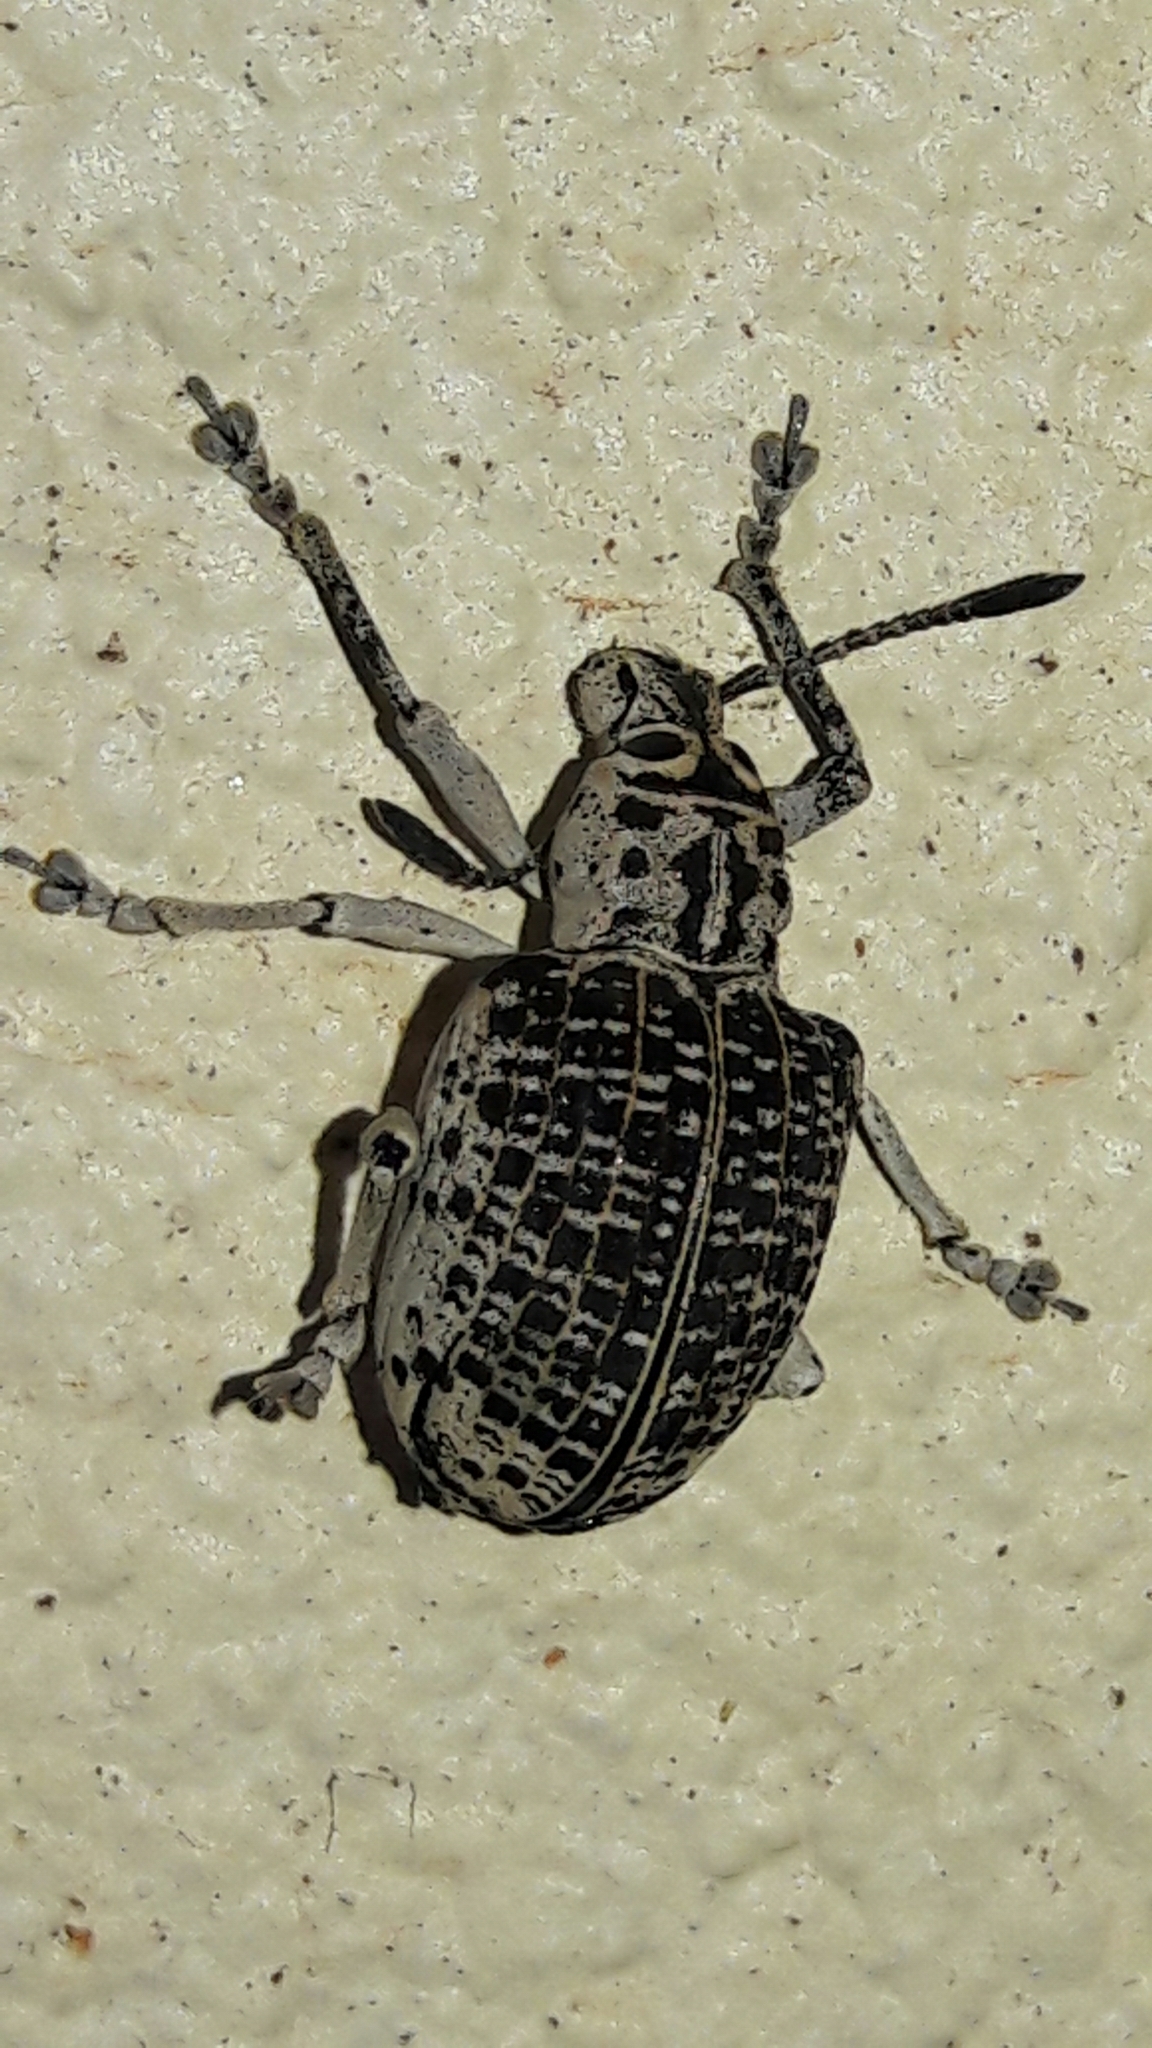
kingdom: Animalia
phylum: Arthropoda
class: Insecta
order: Coleoptera
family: Curculionidae
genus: Cydianerus
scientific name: Cydianerus latruncularius
